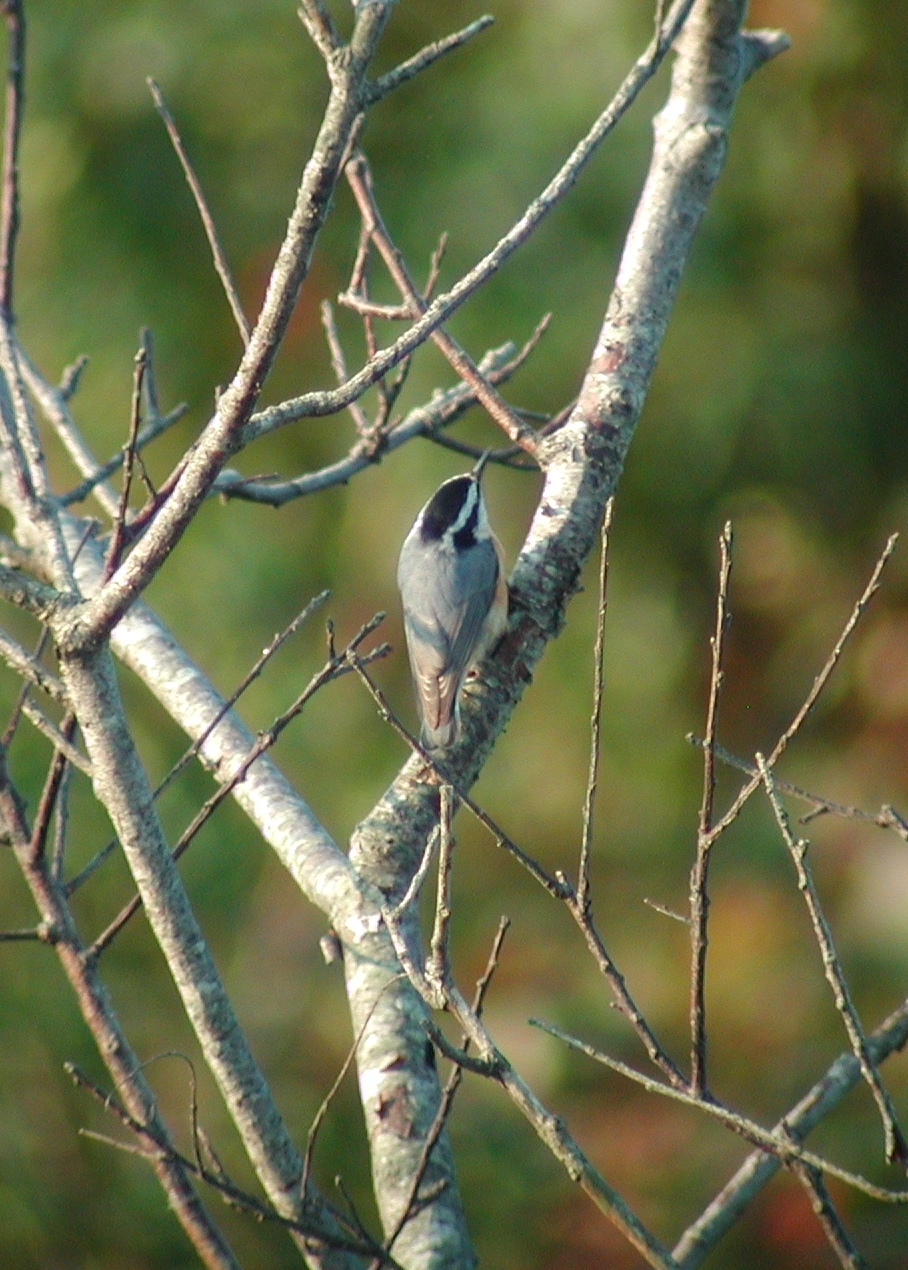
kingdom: Animalia
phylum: Chordata
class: Aves
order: Passeriformes
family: Sittidae
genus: Sitta
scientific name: Sitta canadensis
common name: Red-breasted nuthatch
